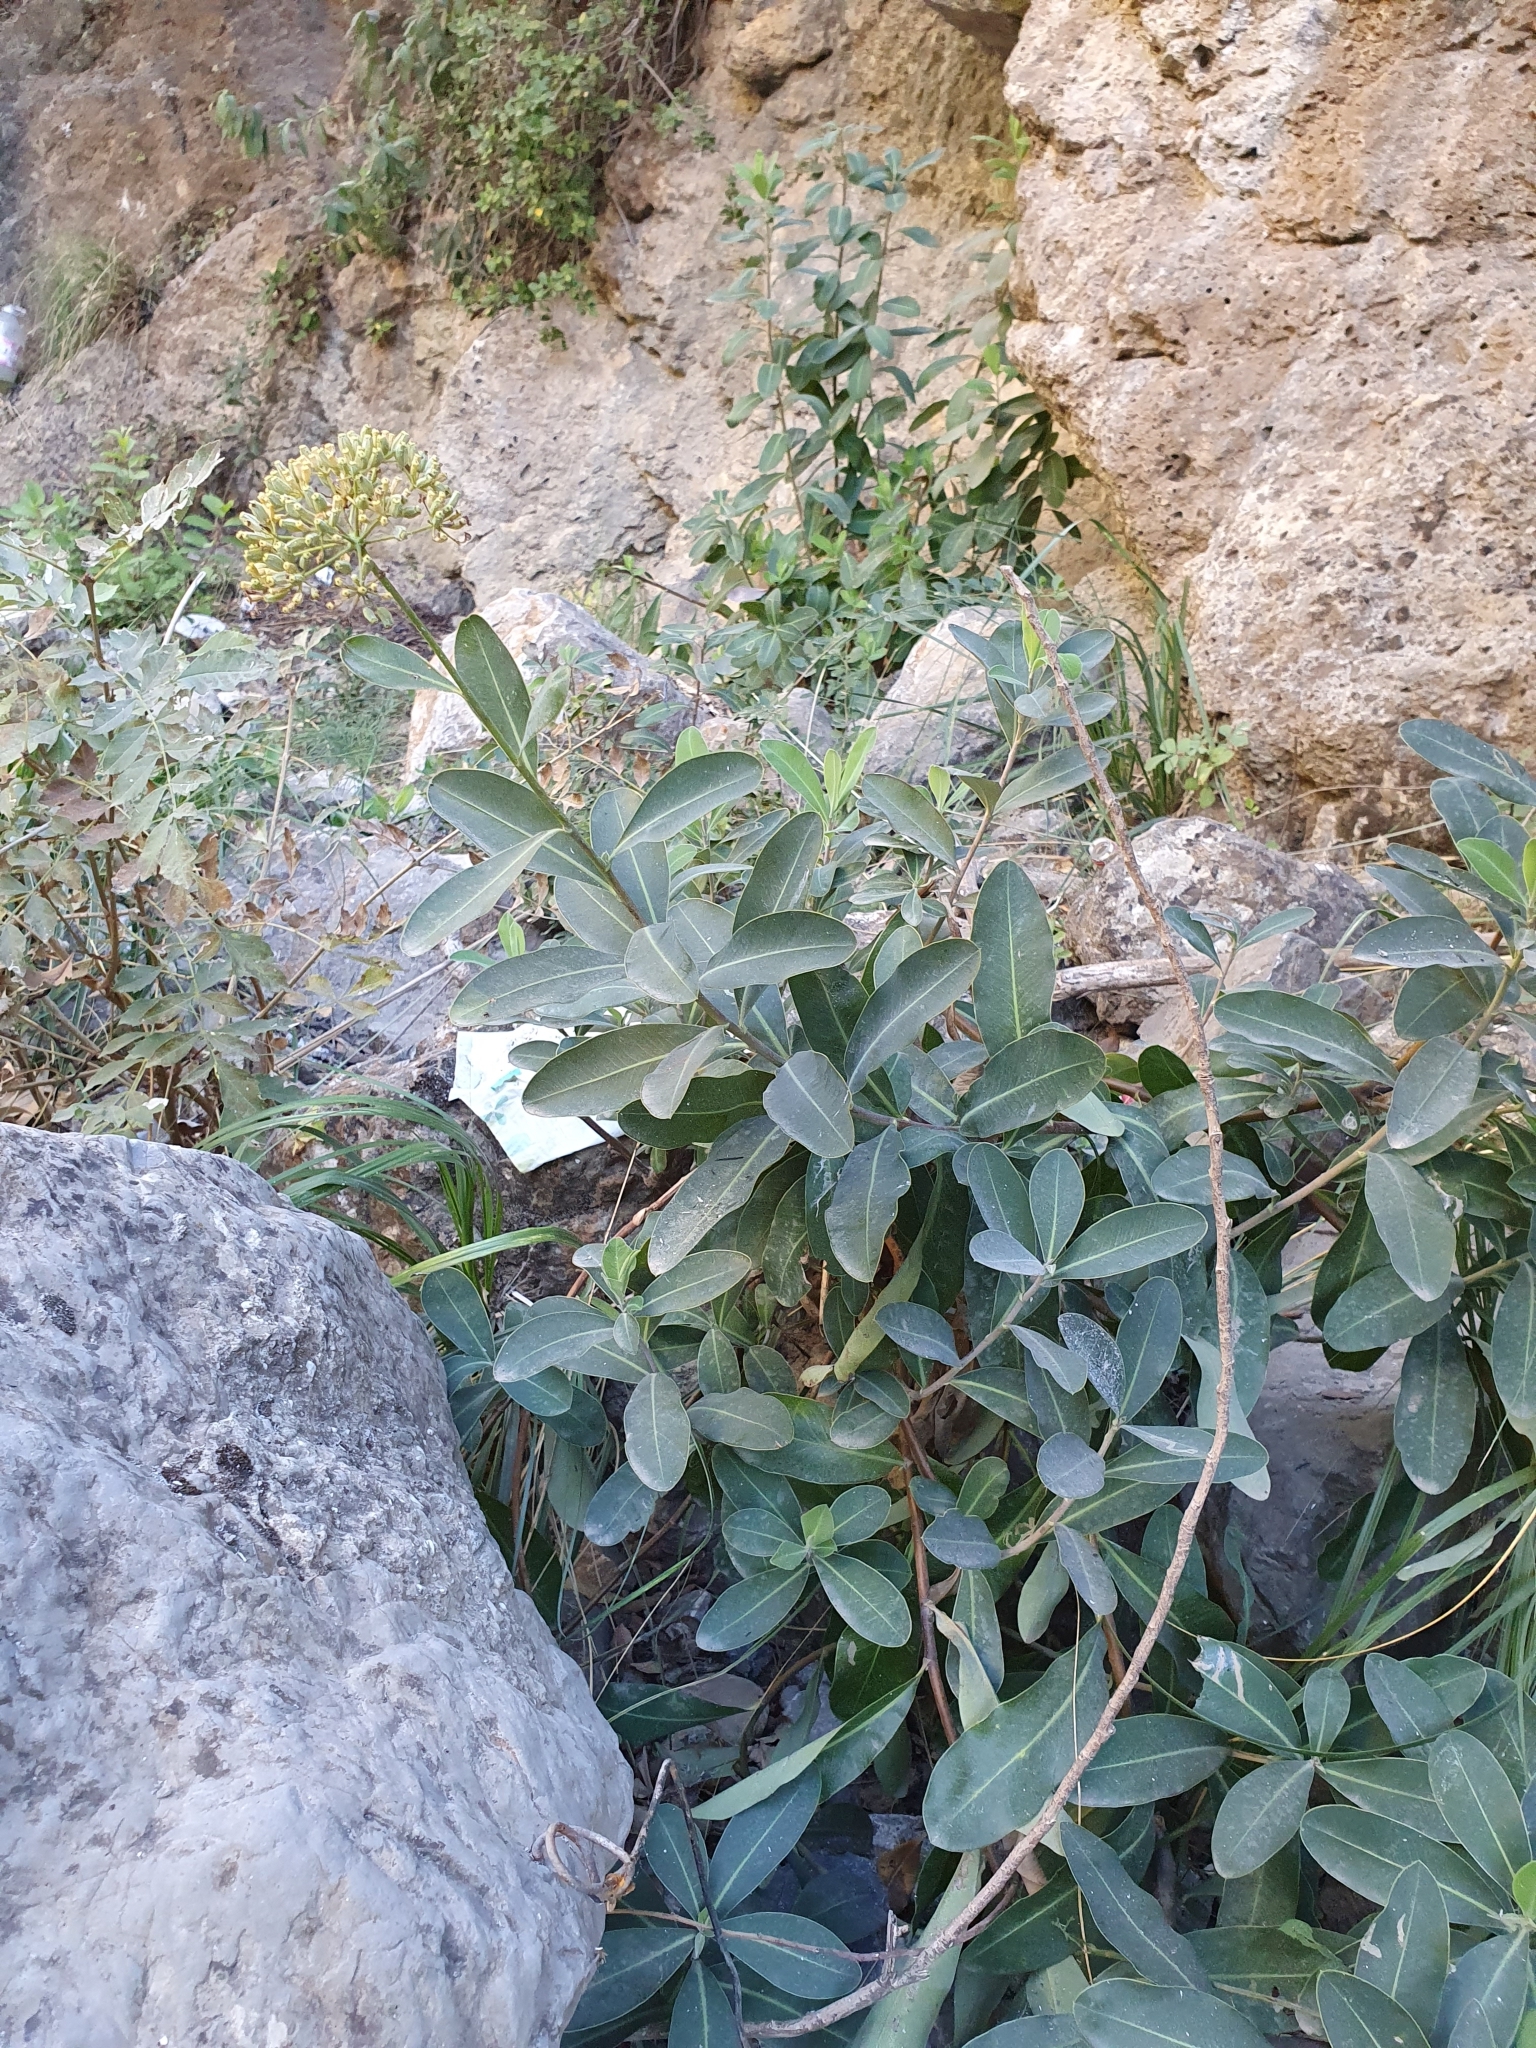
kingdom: Plantae
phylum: Tracheophyta
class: Magnoliopsida
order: Apiales
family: Apiaceae
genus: Bupleurum
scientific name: Bupleurum fruticosum
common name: Shrubby hare's-ear
